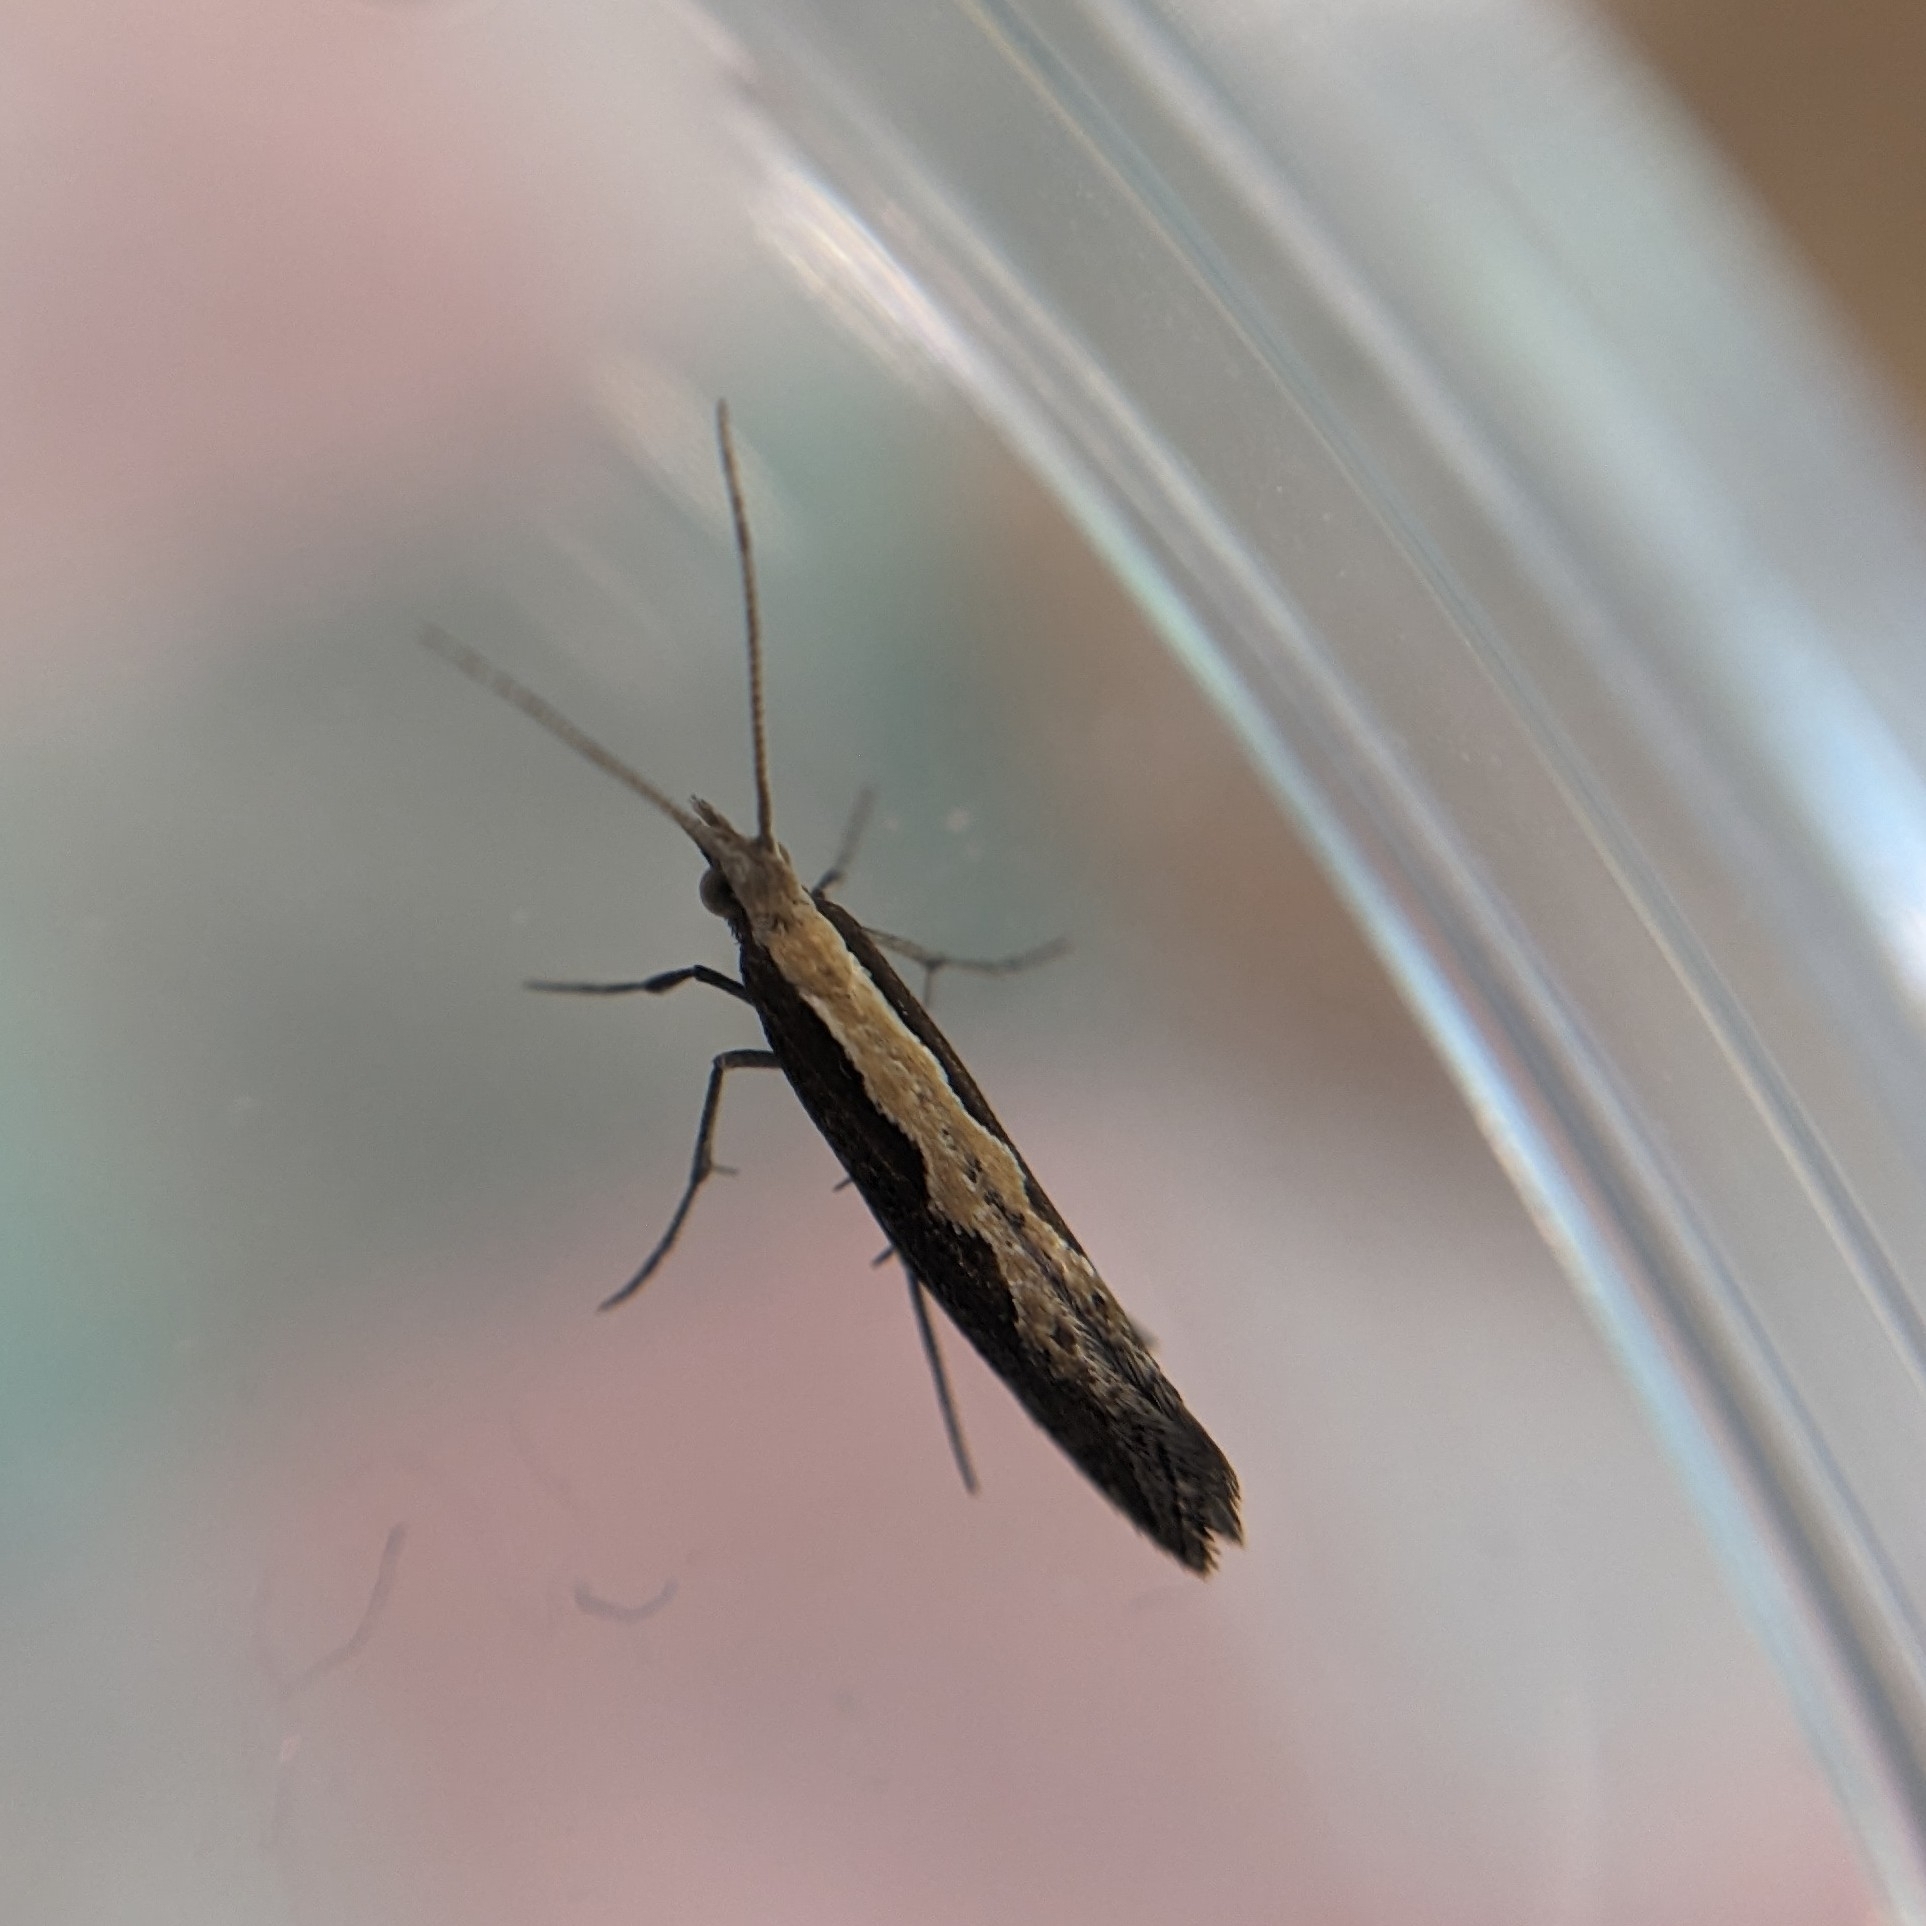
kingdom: Animalia
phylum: Arthropoda
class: Insecta
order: Lepidoptera
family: Plutellidae
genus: Plutella
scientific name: Plutella xylostella
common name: Diamond-back moth
